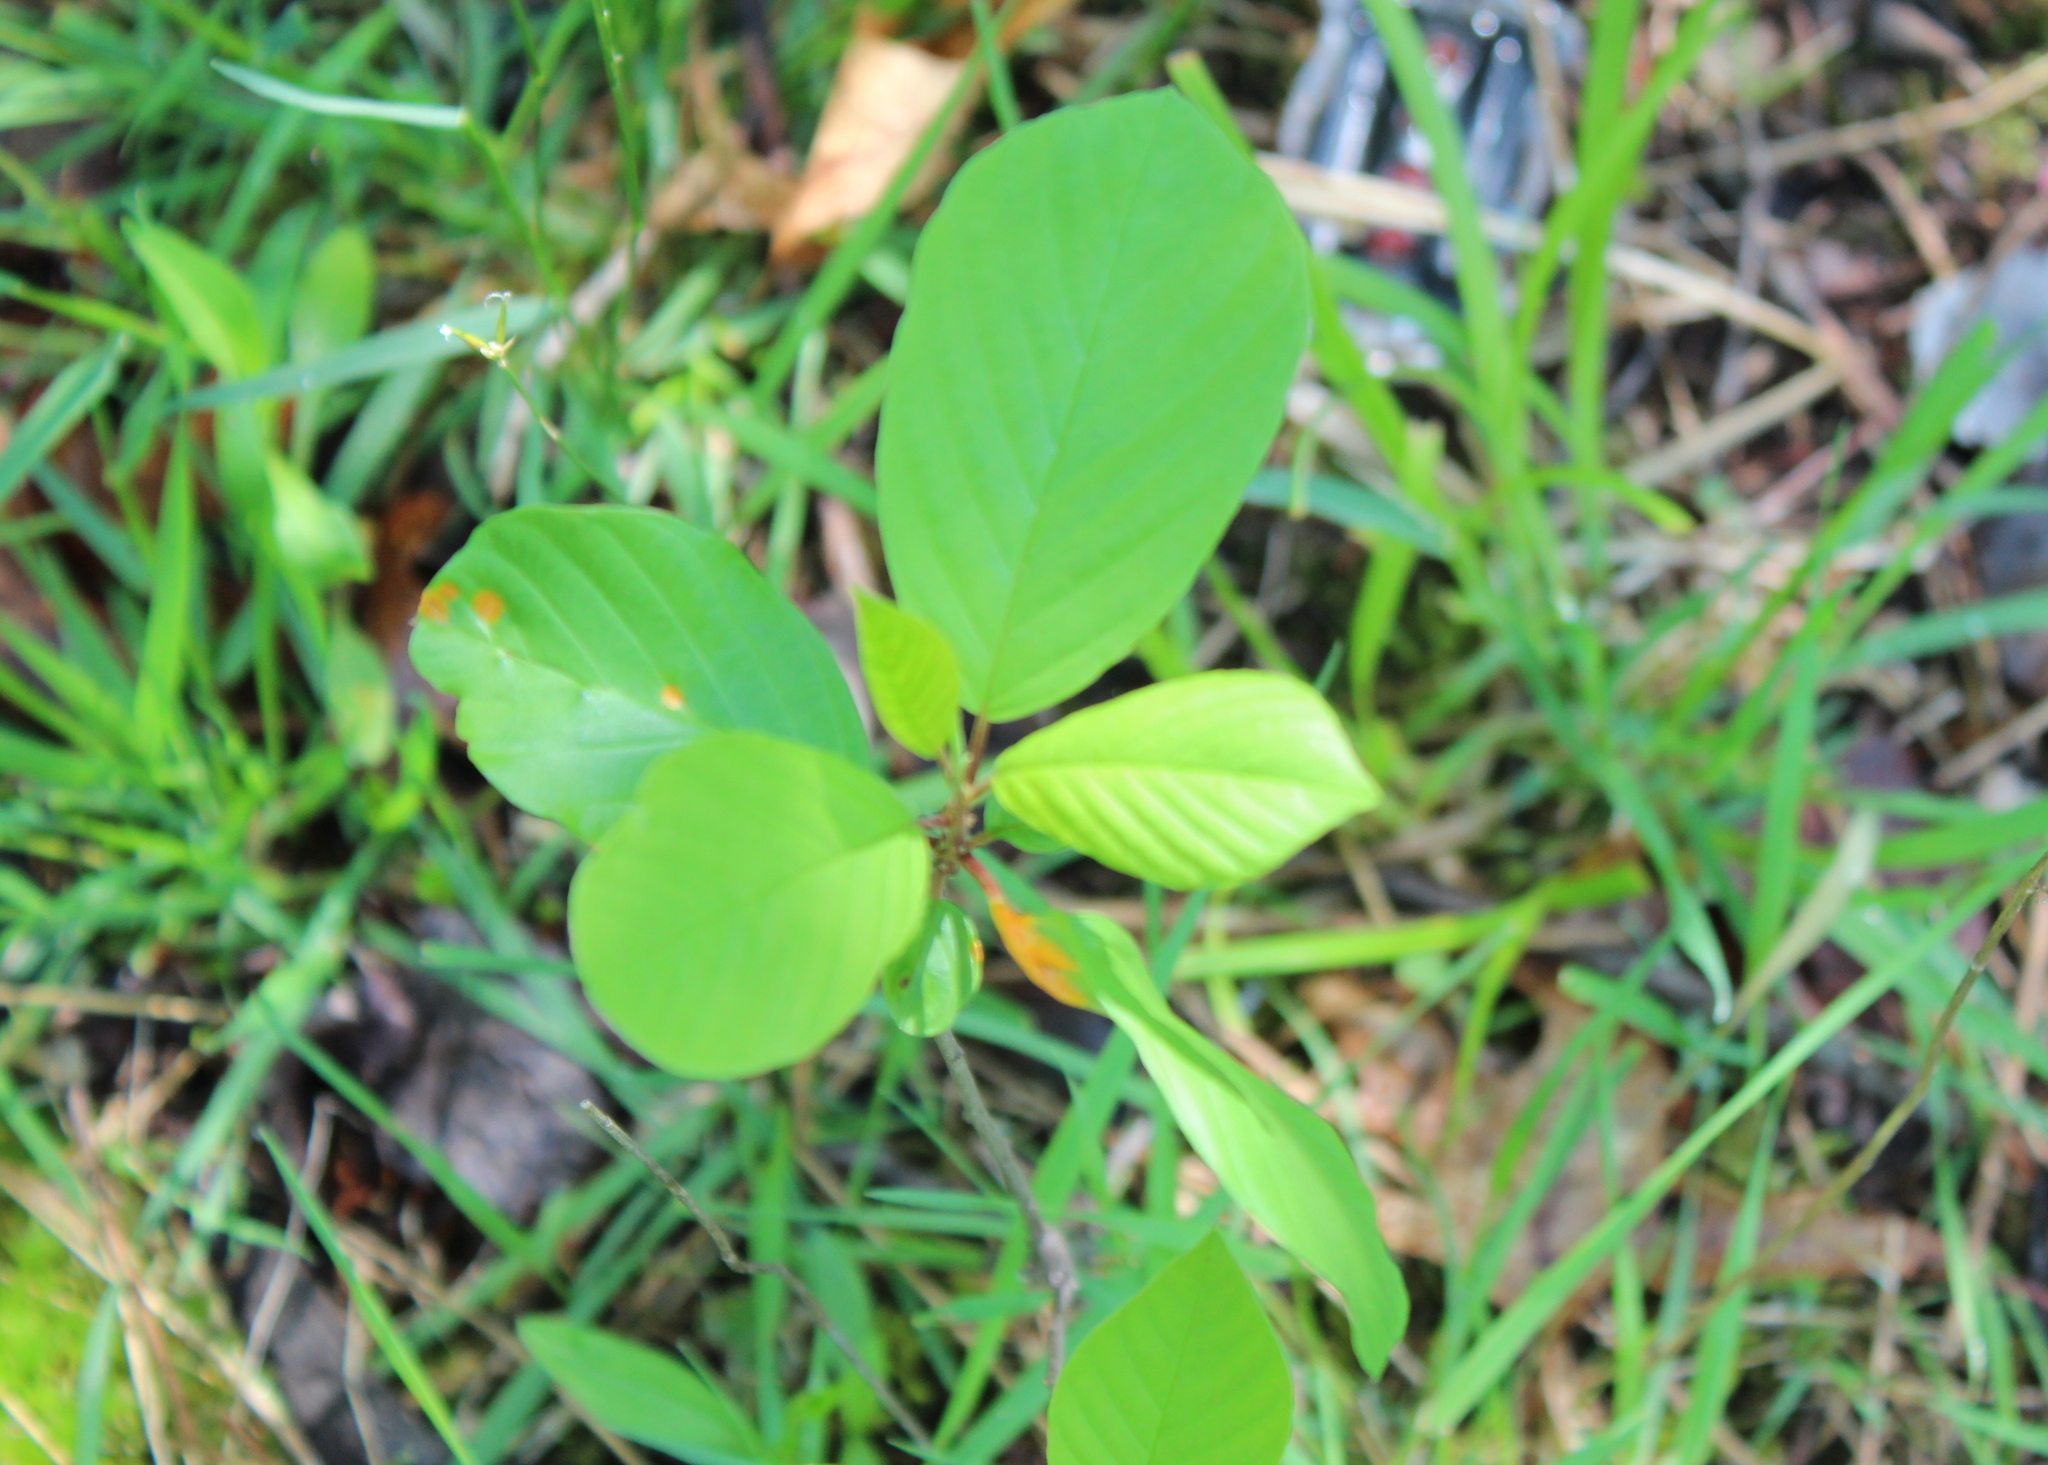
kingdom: Plantae
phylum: Tracheophyta
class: Magnoliopsida
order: Rosales
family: Rhamnaceae
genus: Frangula
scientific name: Frangula alnus
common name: Alder buckthorn
